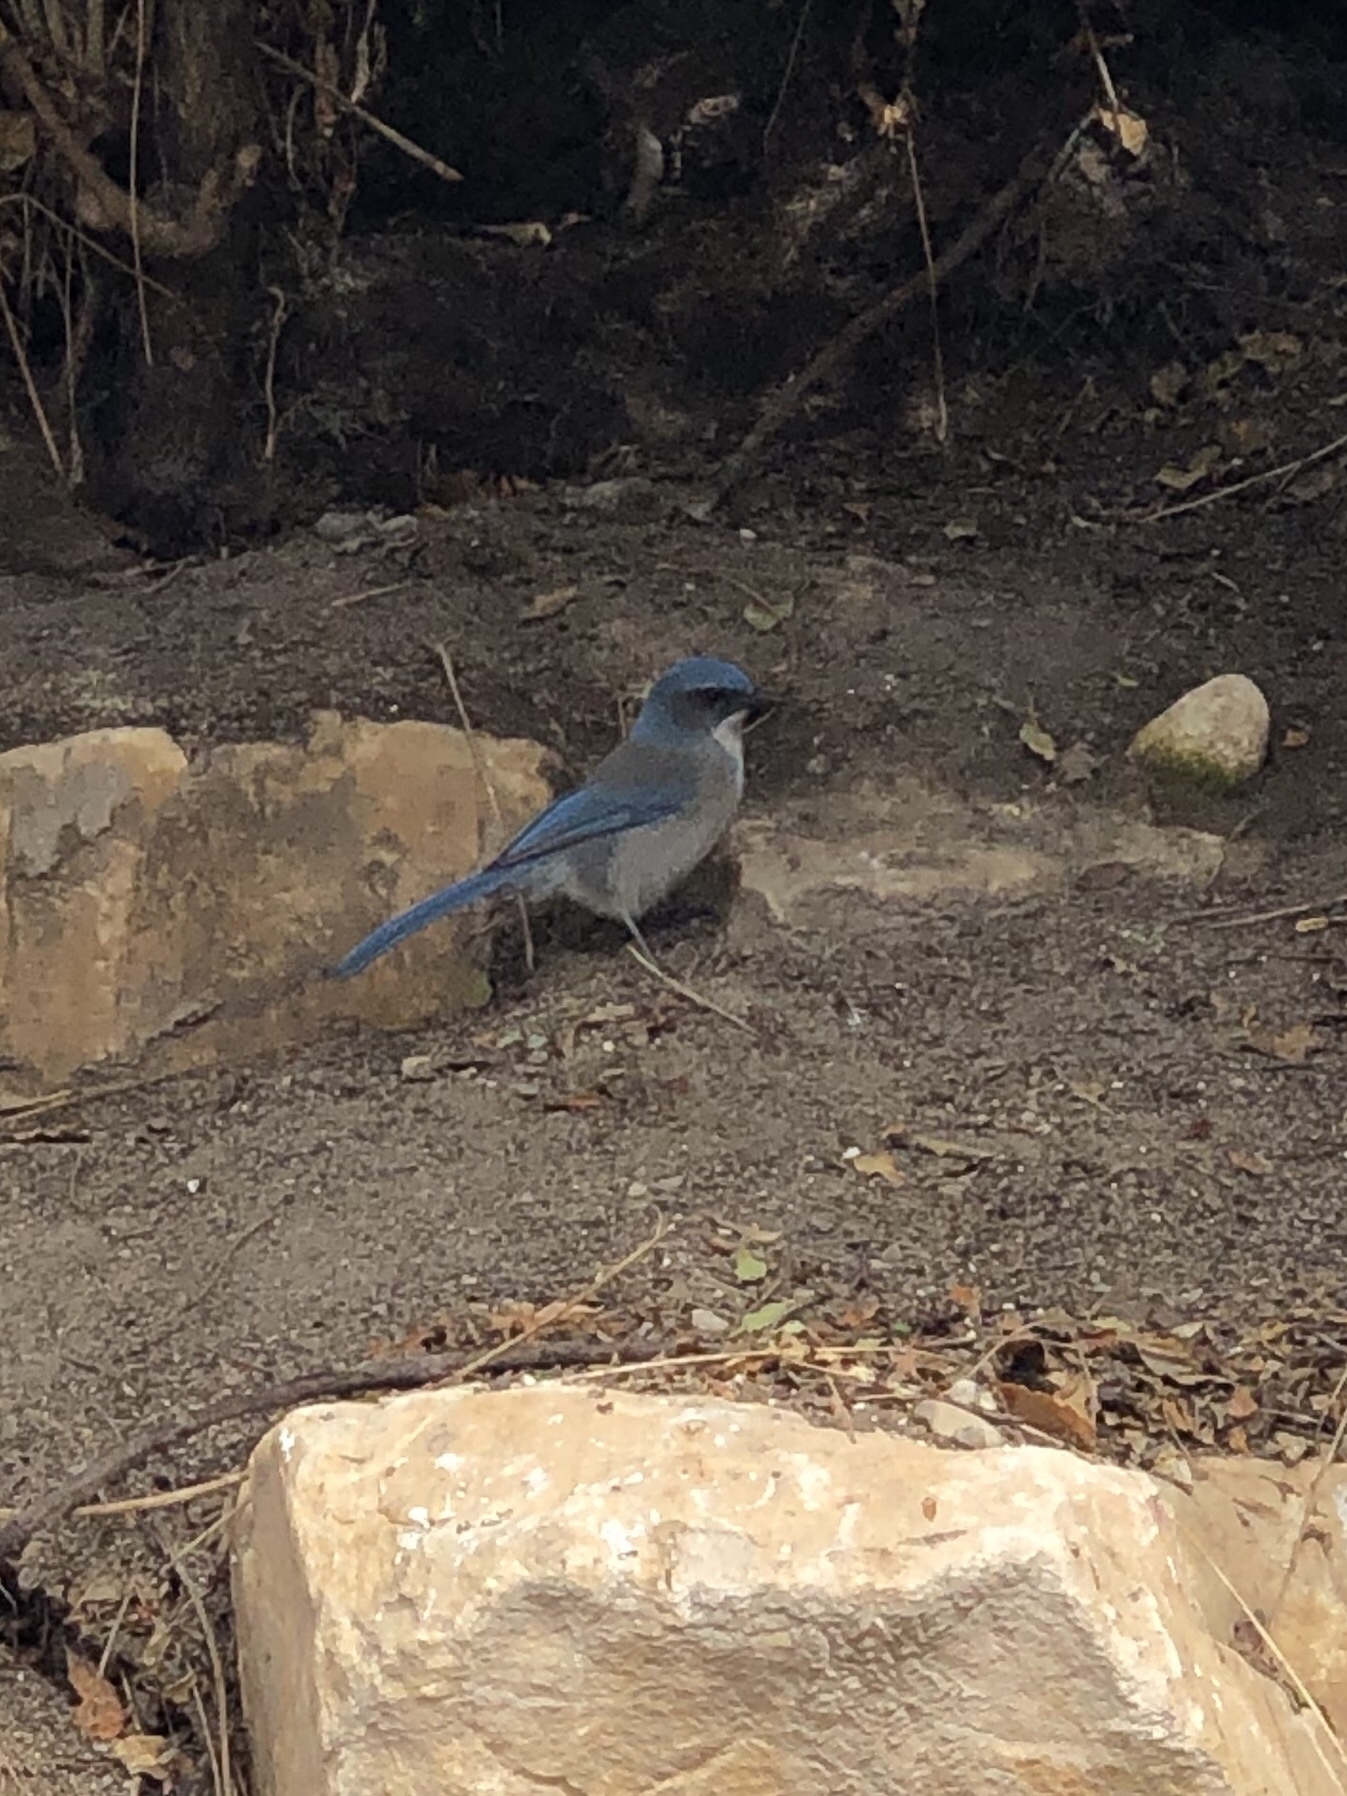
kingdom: Animalia
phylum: Chordata
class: Aves
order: Passeriformes
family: Corvidae
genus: Aphelocoma
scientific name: Aphelocoma woodhouseii
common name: Woodhouse's scrub-jay
